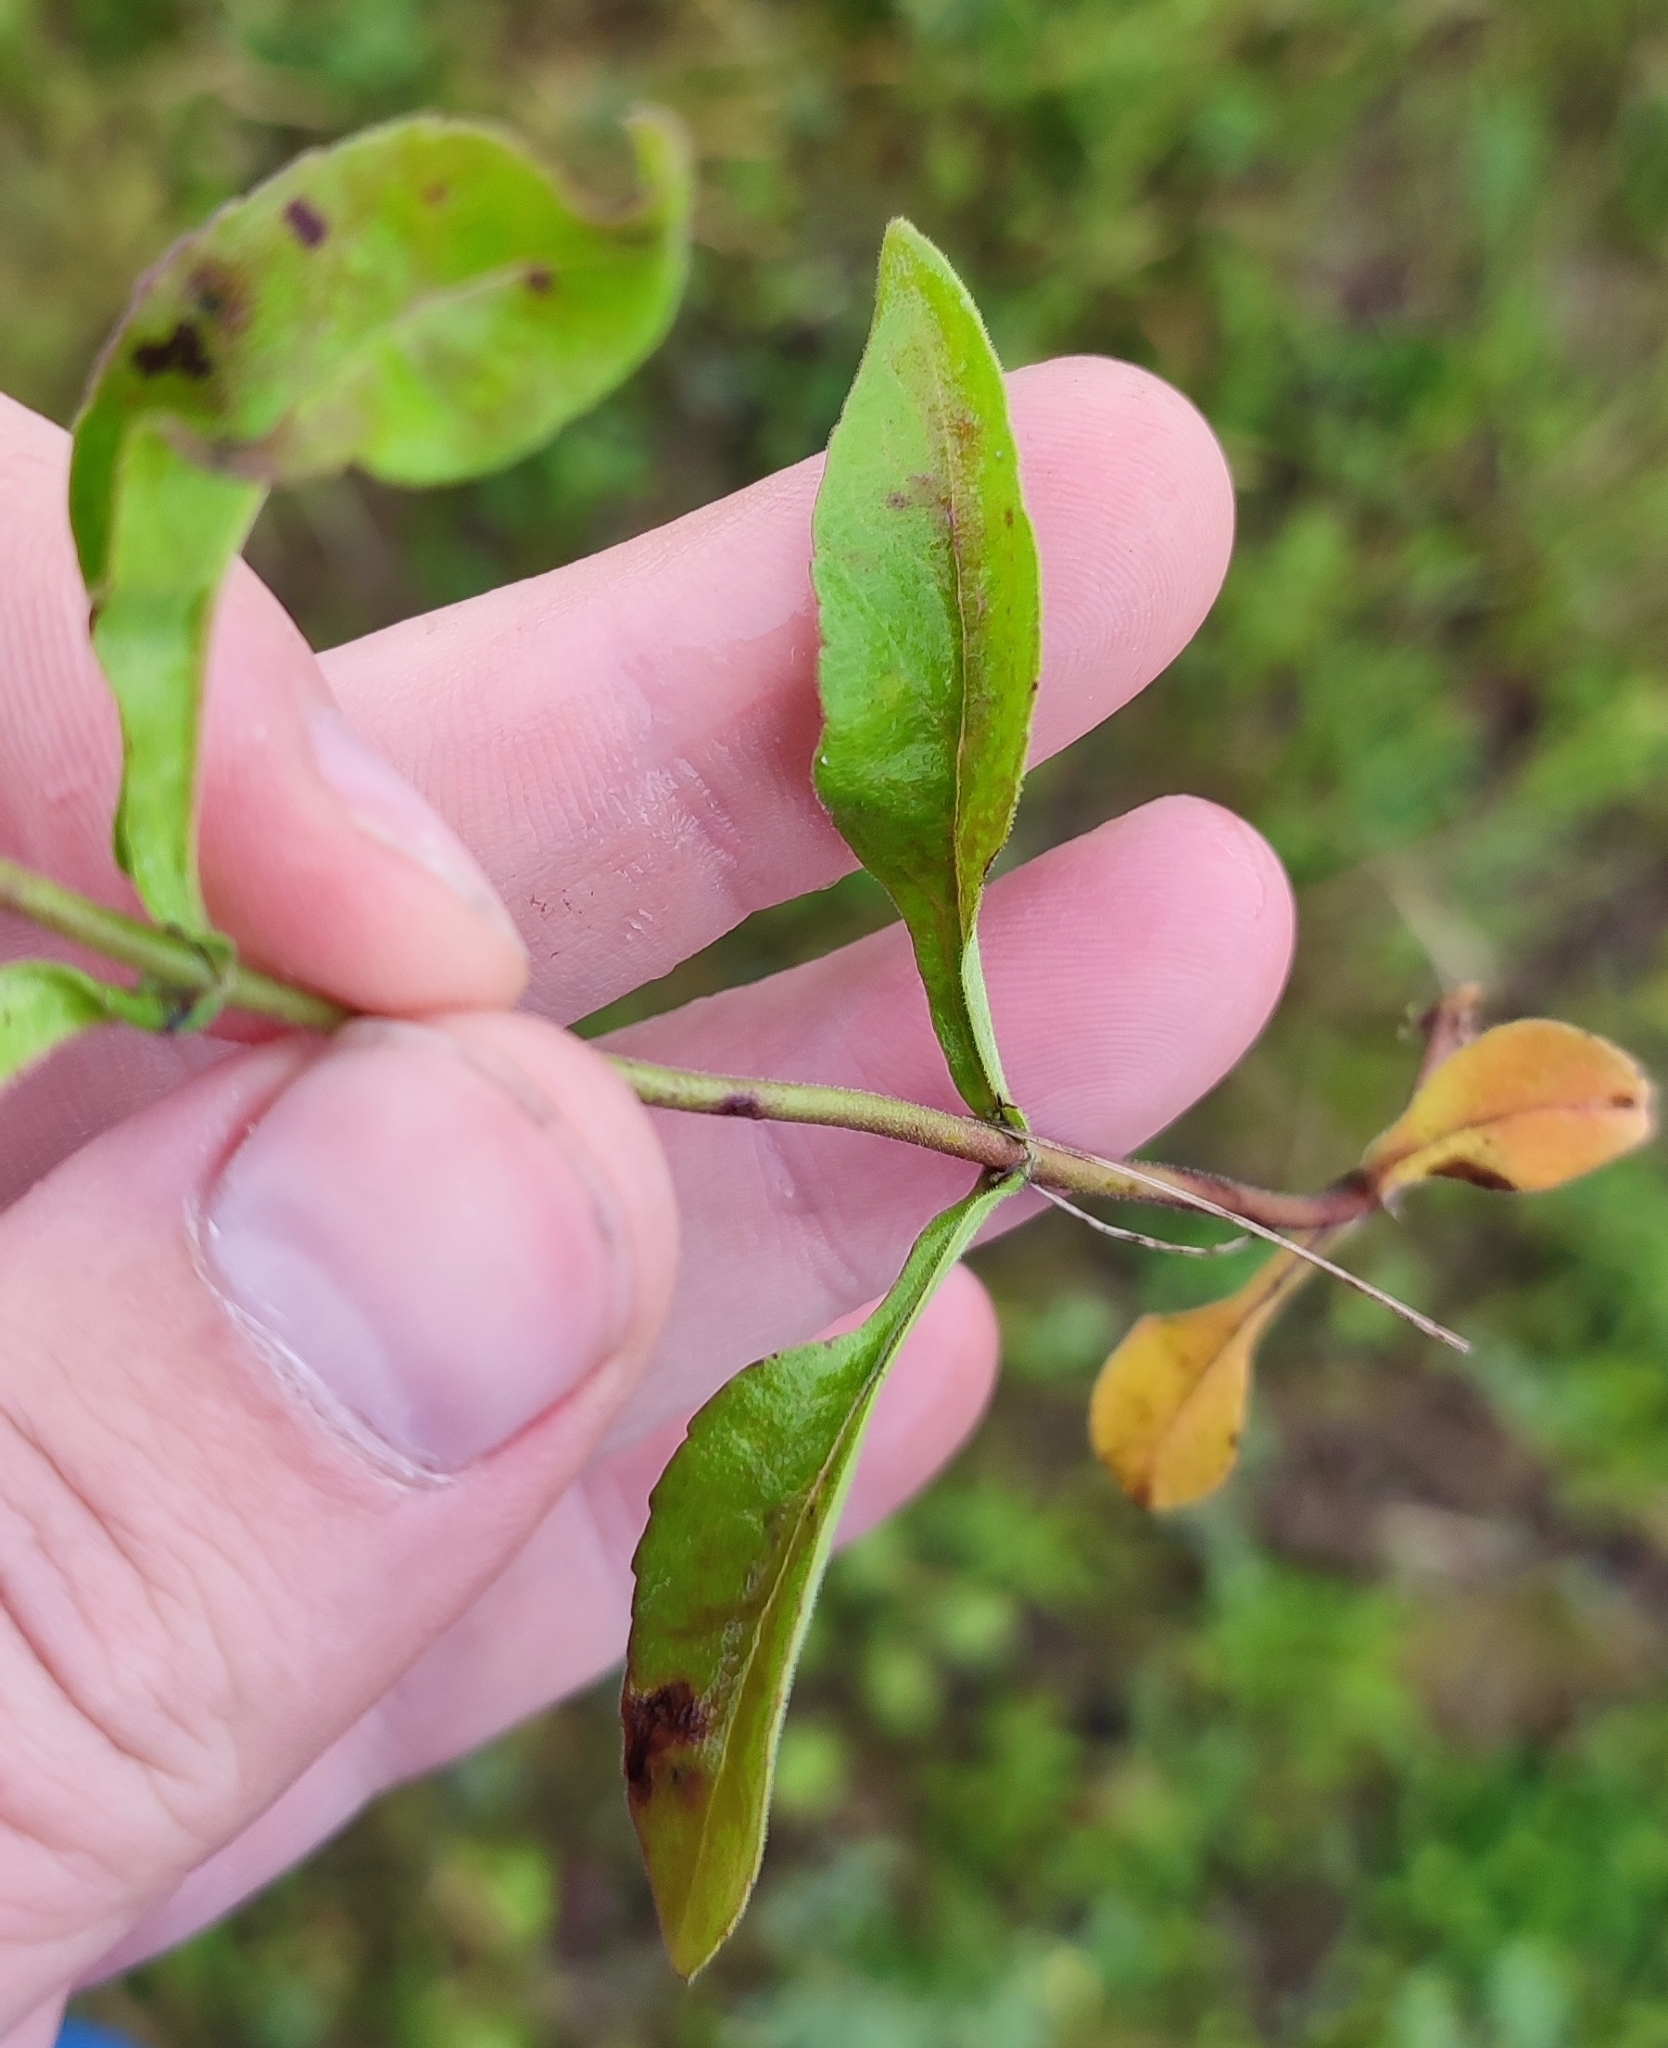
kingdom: Plantae
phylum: Tracheophyta
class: Magnoliopsida
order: Lamiales
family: Plantaginaceae
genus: Veronica
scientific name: Veronica spicata
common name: Spiked speedwell
